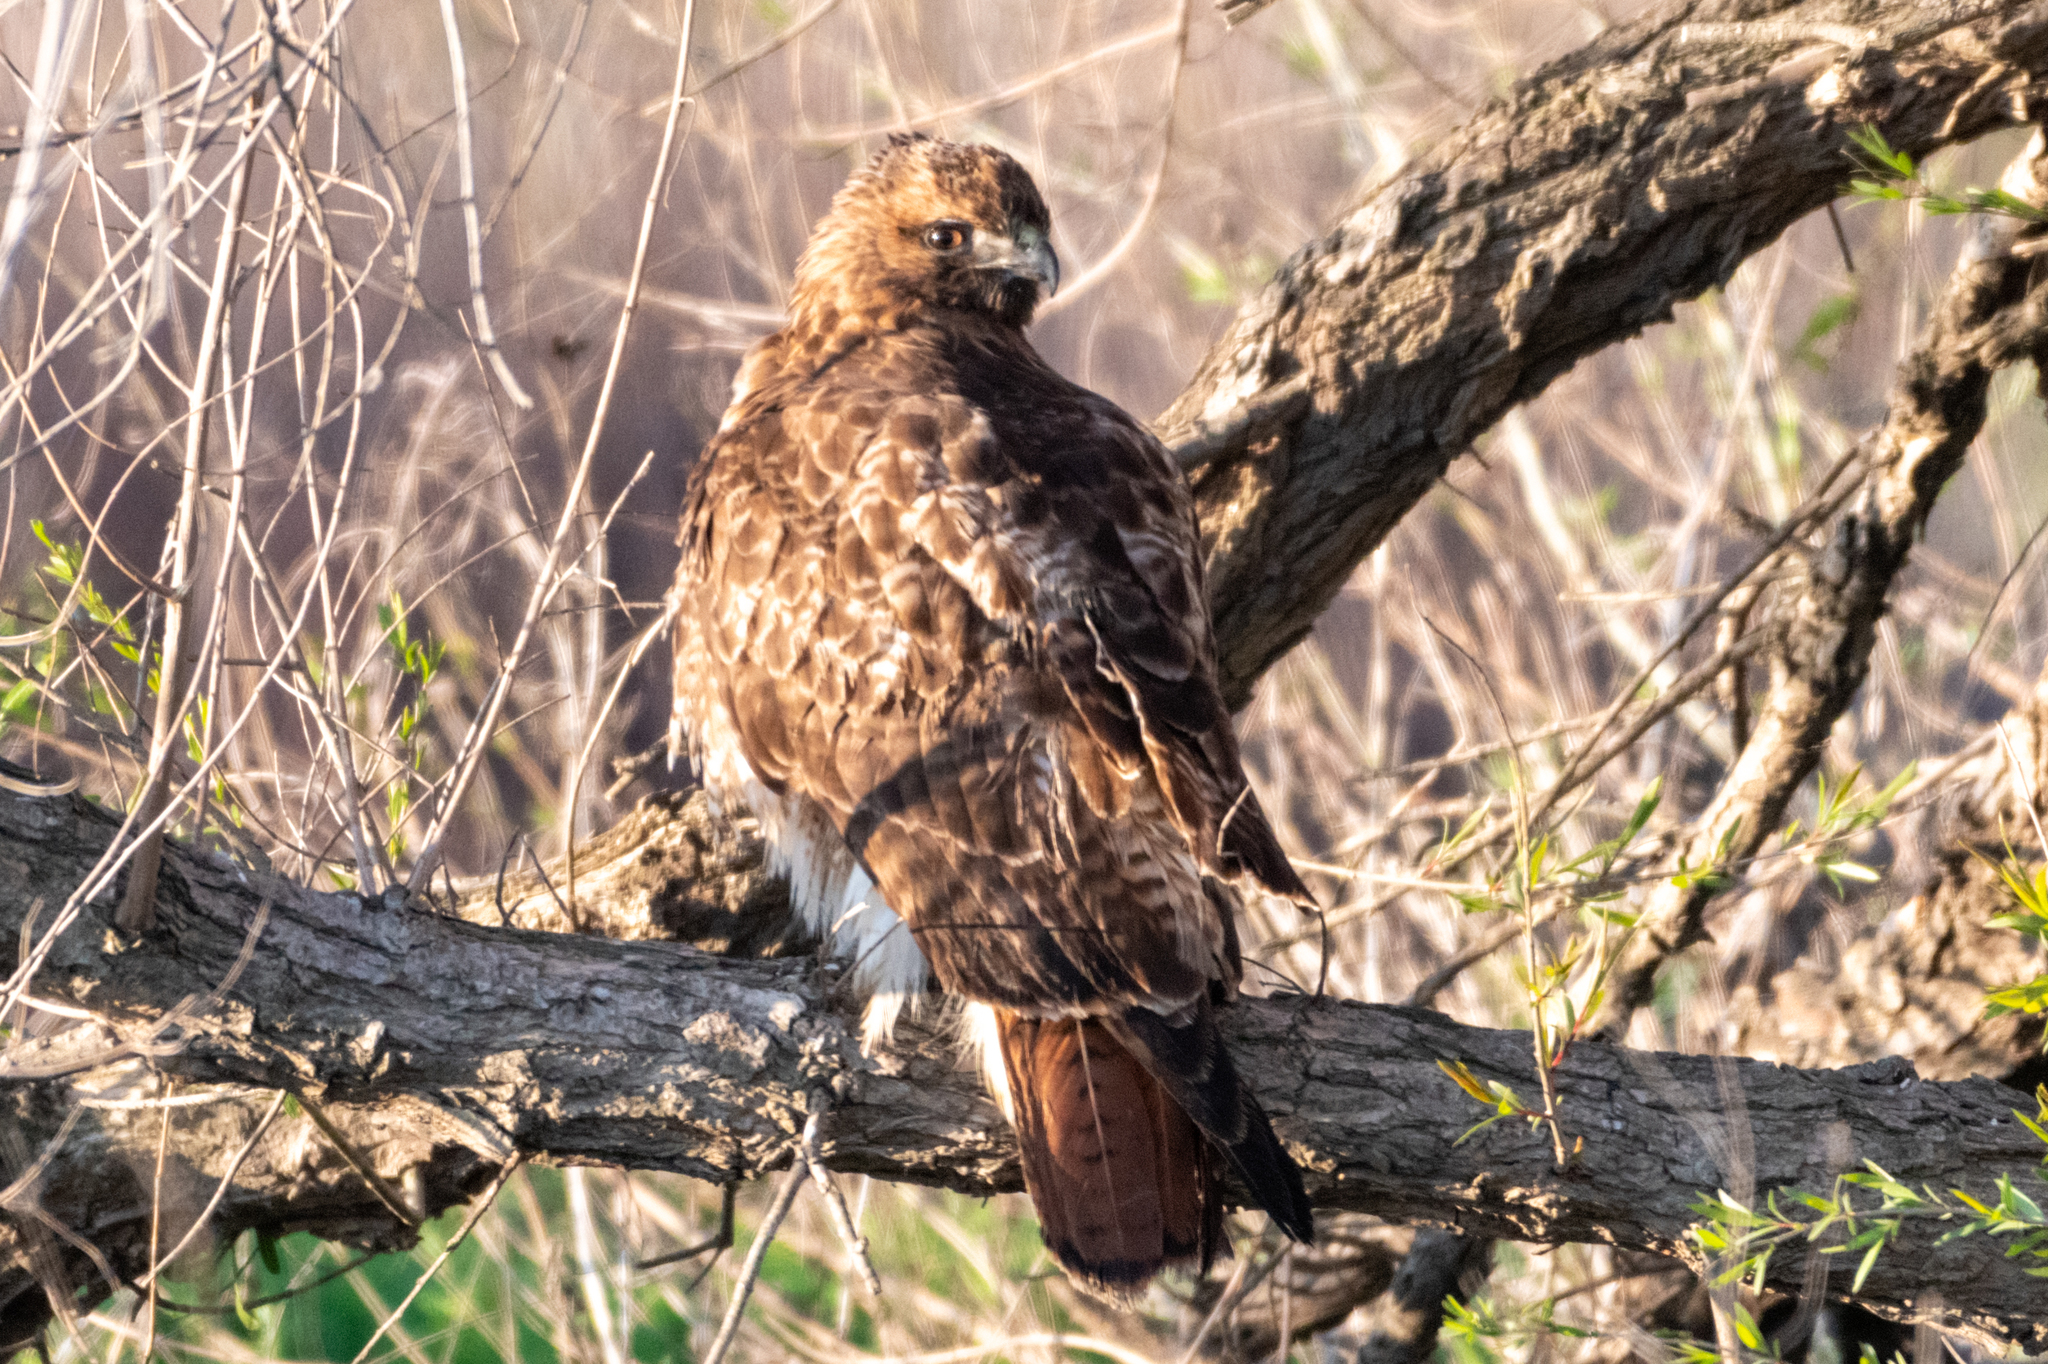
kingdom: Animalia
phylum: Chordata
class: Aves
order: Accipitriformes
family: Accipitridae
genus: Buteo
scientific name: Buteo jamaicensis
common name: Red-tailed hawk
